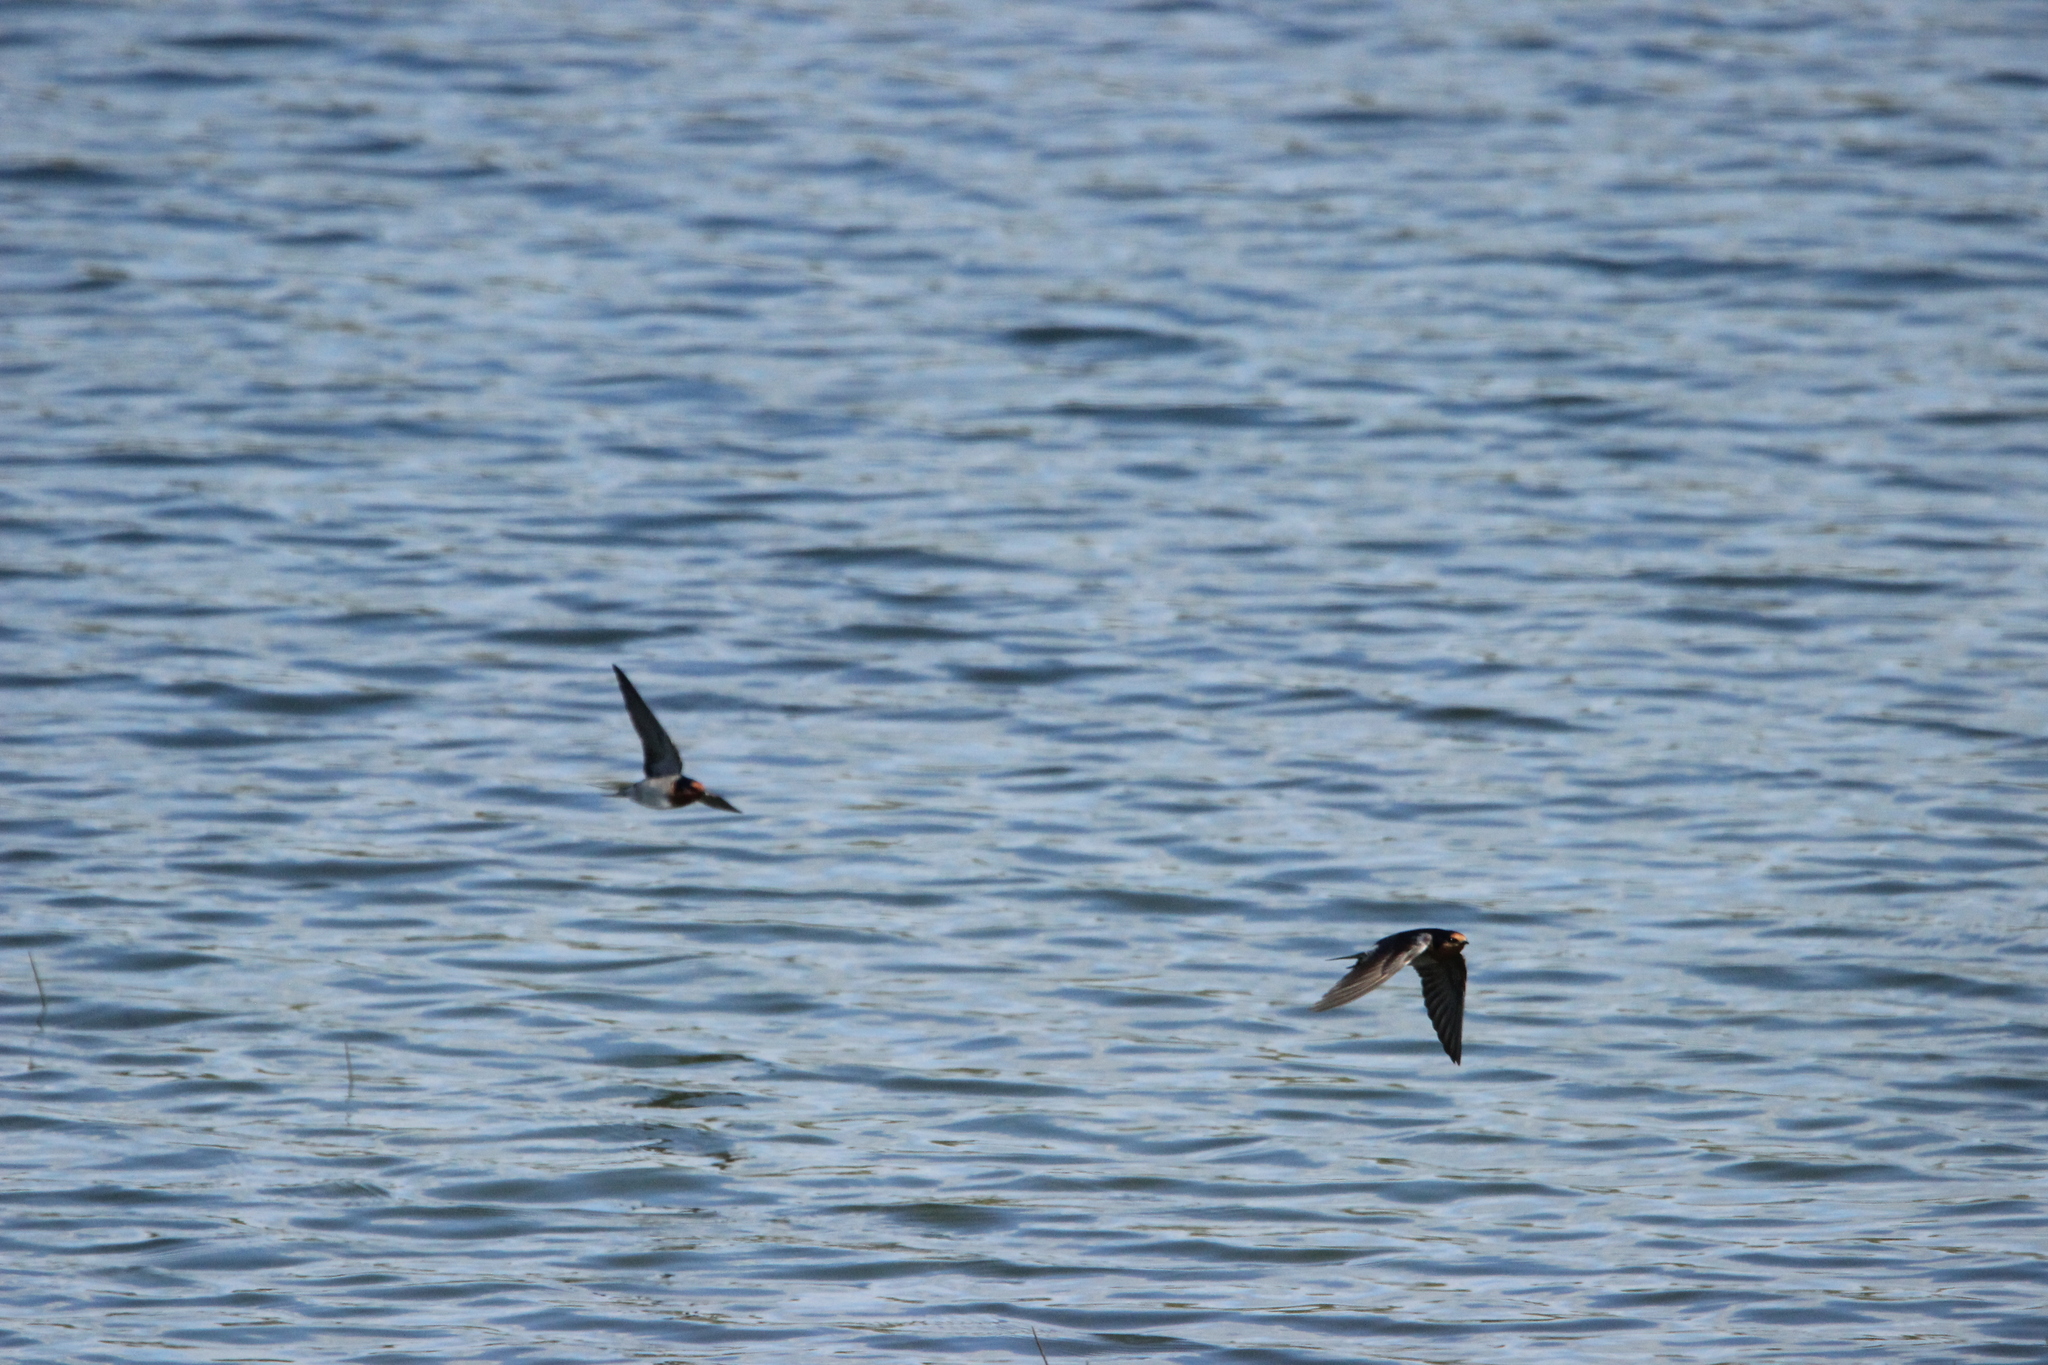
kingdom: Animalia
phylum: Chordata
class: Aves
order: Passeriformes
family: Hirundinidae
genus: Hirundo
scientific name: Hirundo neoxena
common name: Welcome swallow
